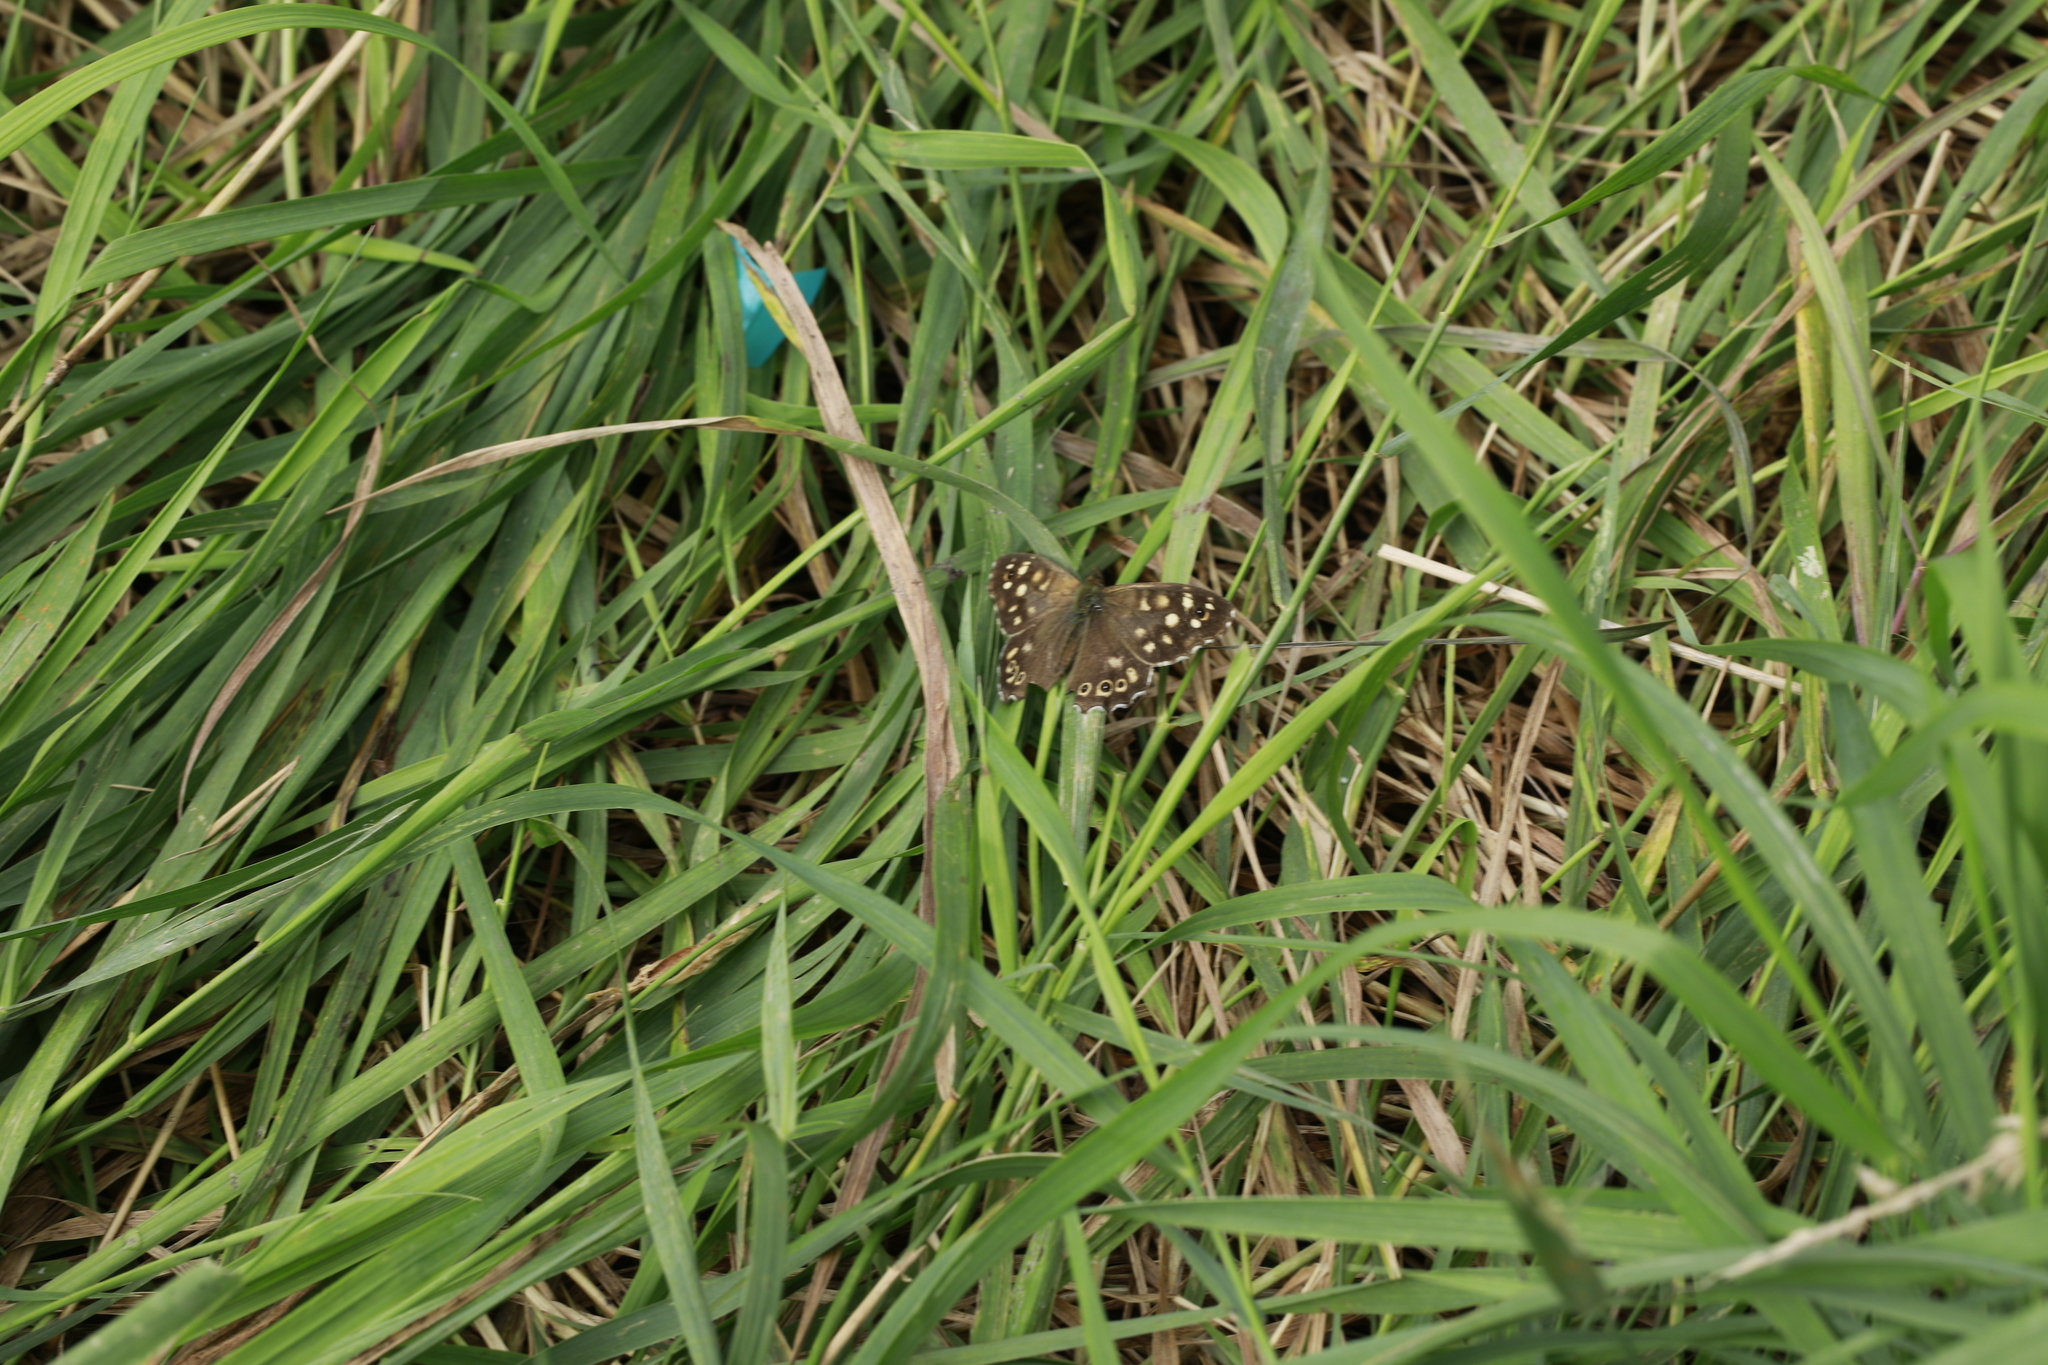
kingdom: Animalia
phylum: Arthropoda
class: Insecta
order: Lepidoptera
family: Nymphalidae
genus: Pararge
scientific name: Pararge aegeria
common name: Speckled wood
